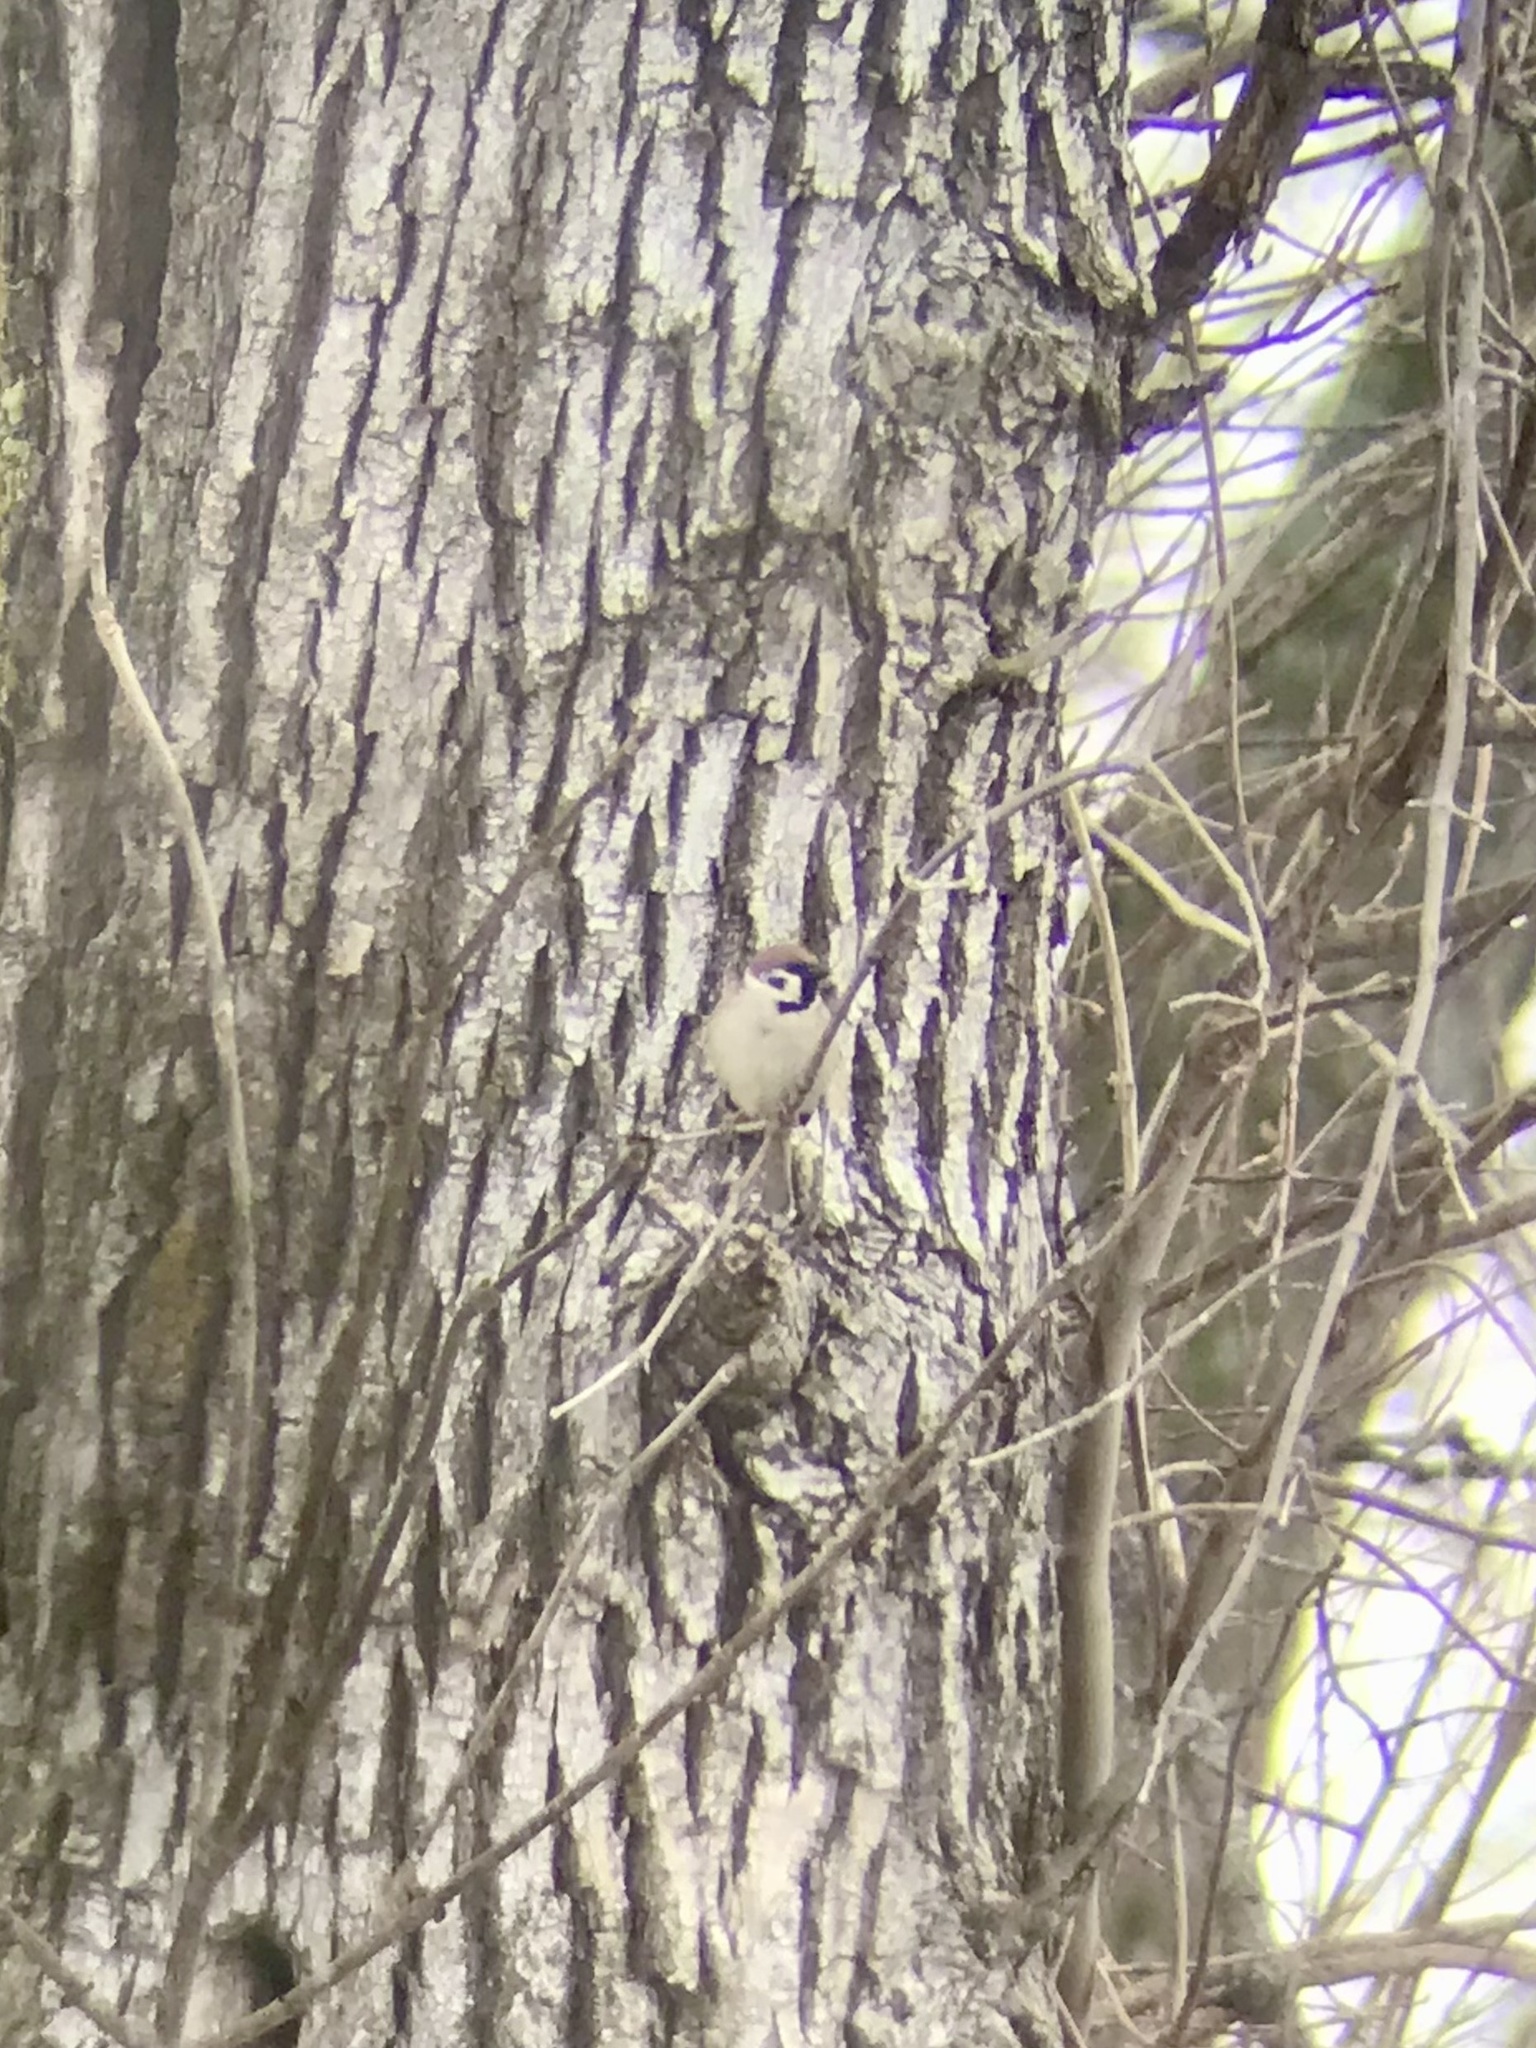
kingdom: Animalia
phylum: Chordata
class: Aves
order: Passeriformes
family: Passeridae
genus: Passer
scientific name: Passer montanus
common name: Eurasian tree sparrow
